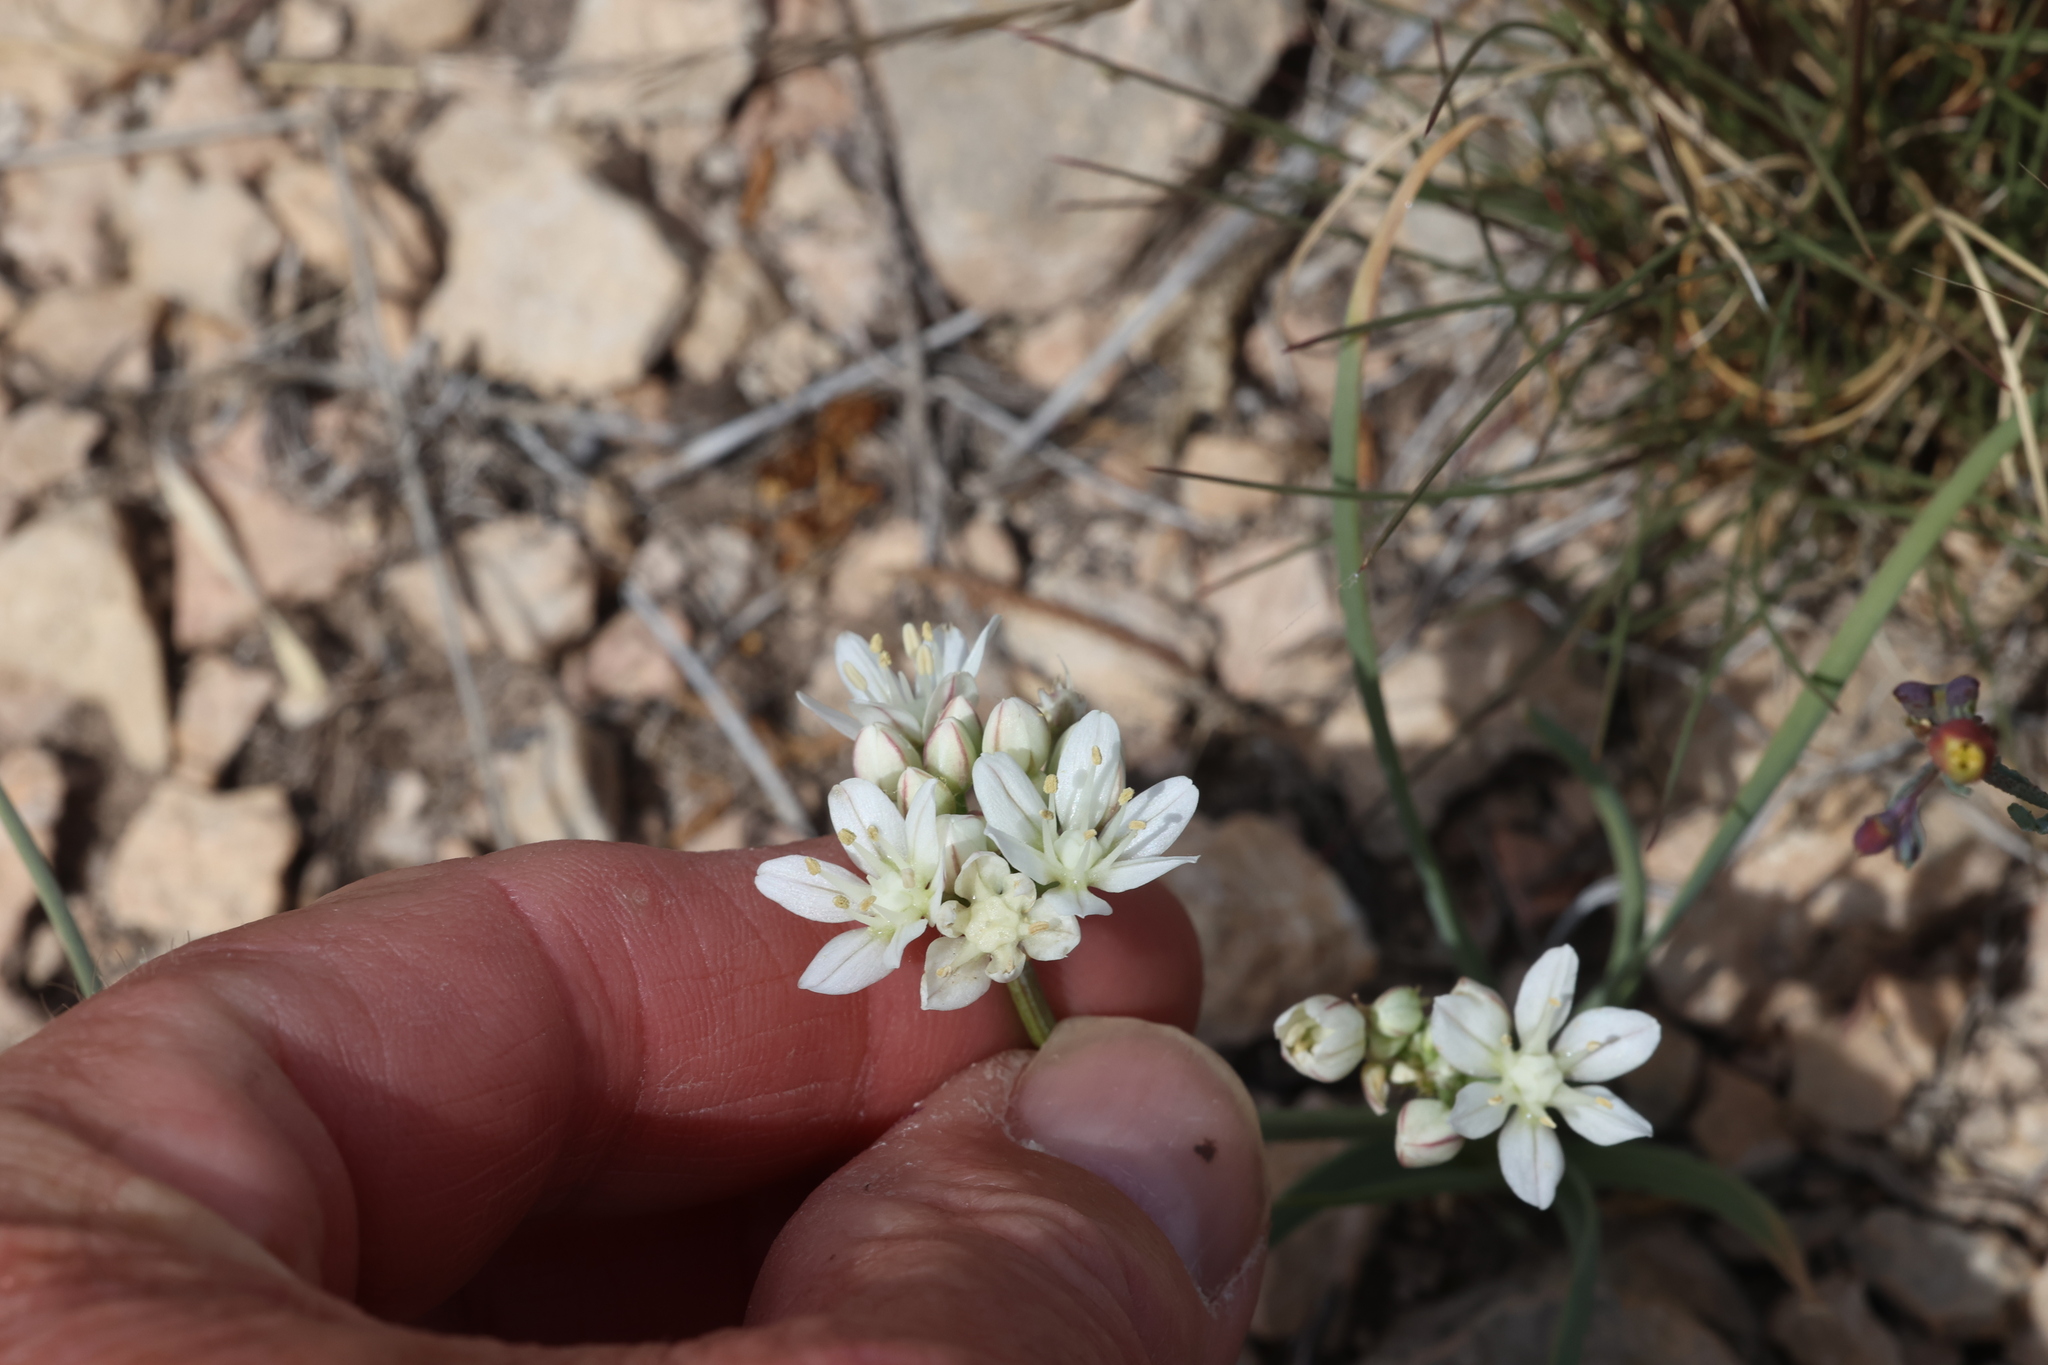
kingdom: Plantae
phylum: Tracheophyta
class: Liliopsida
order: Asparagales
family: Amaryllidaceae
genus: Allium
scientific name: Allium drummondii
